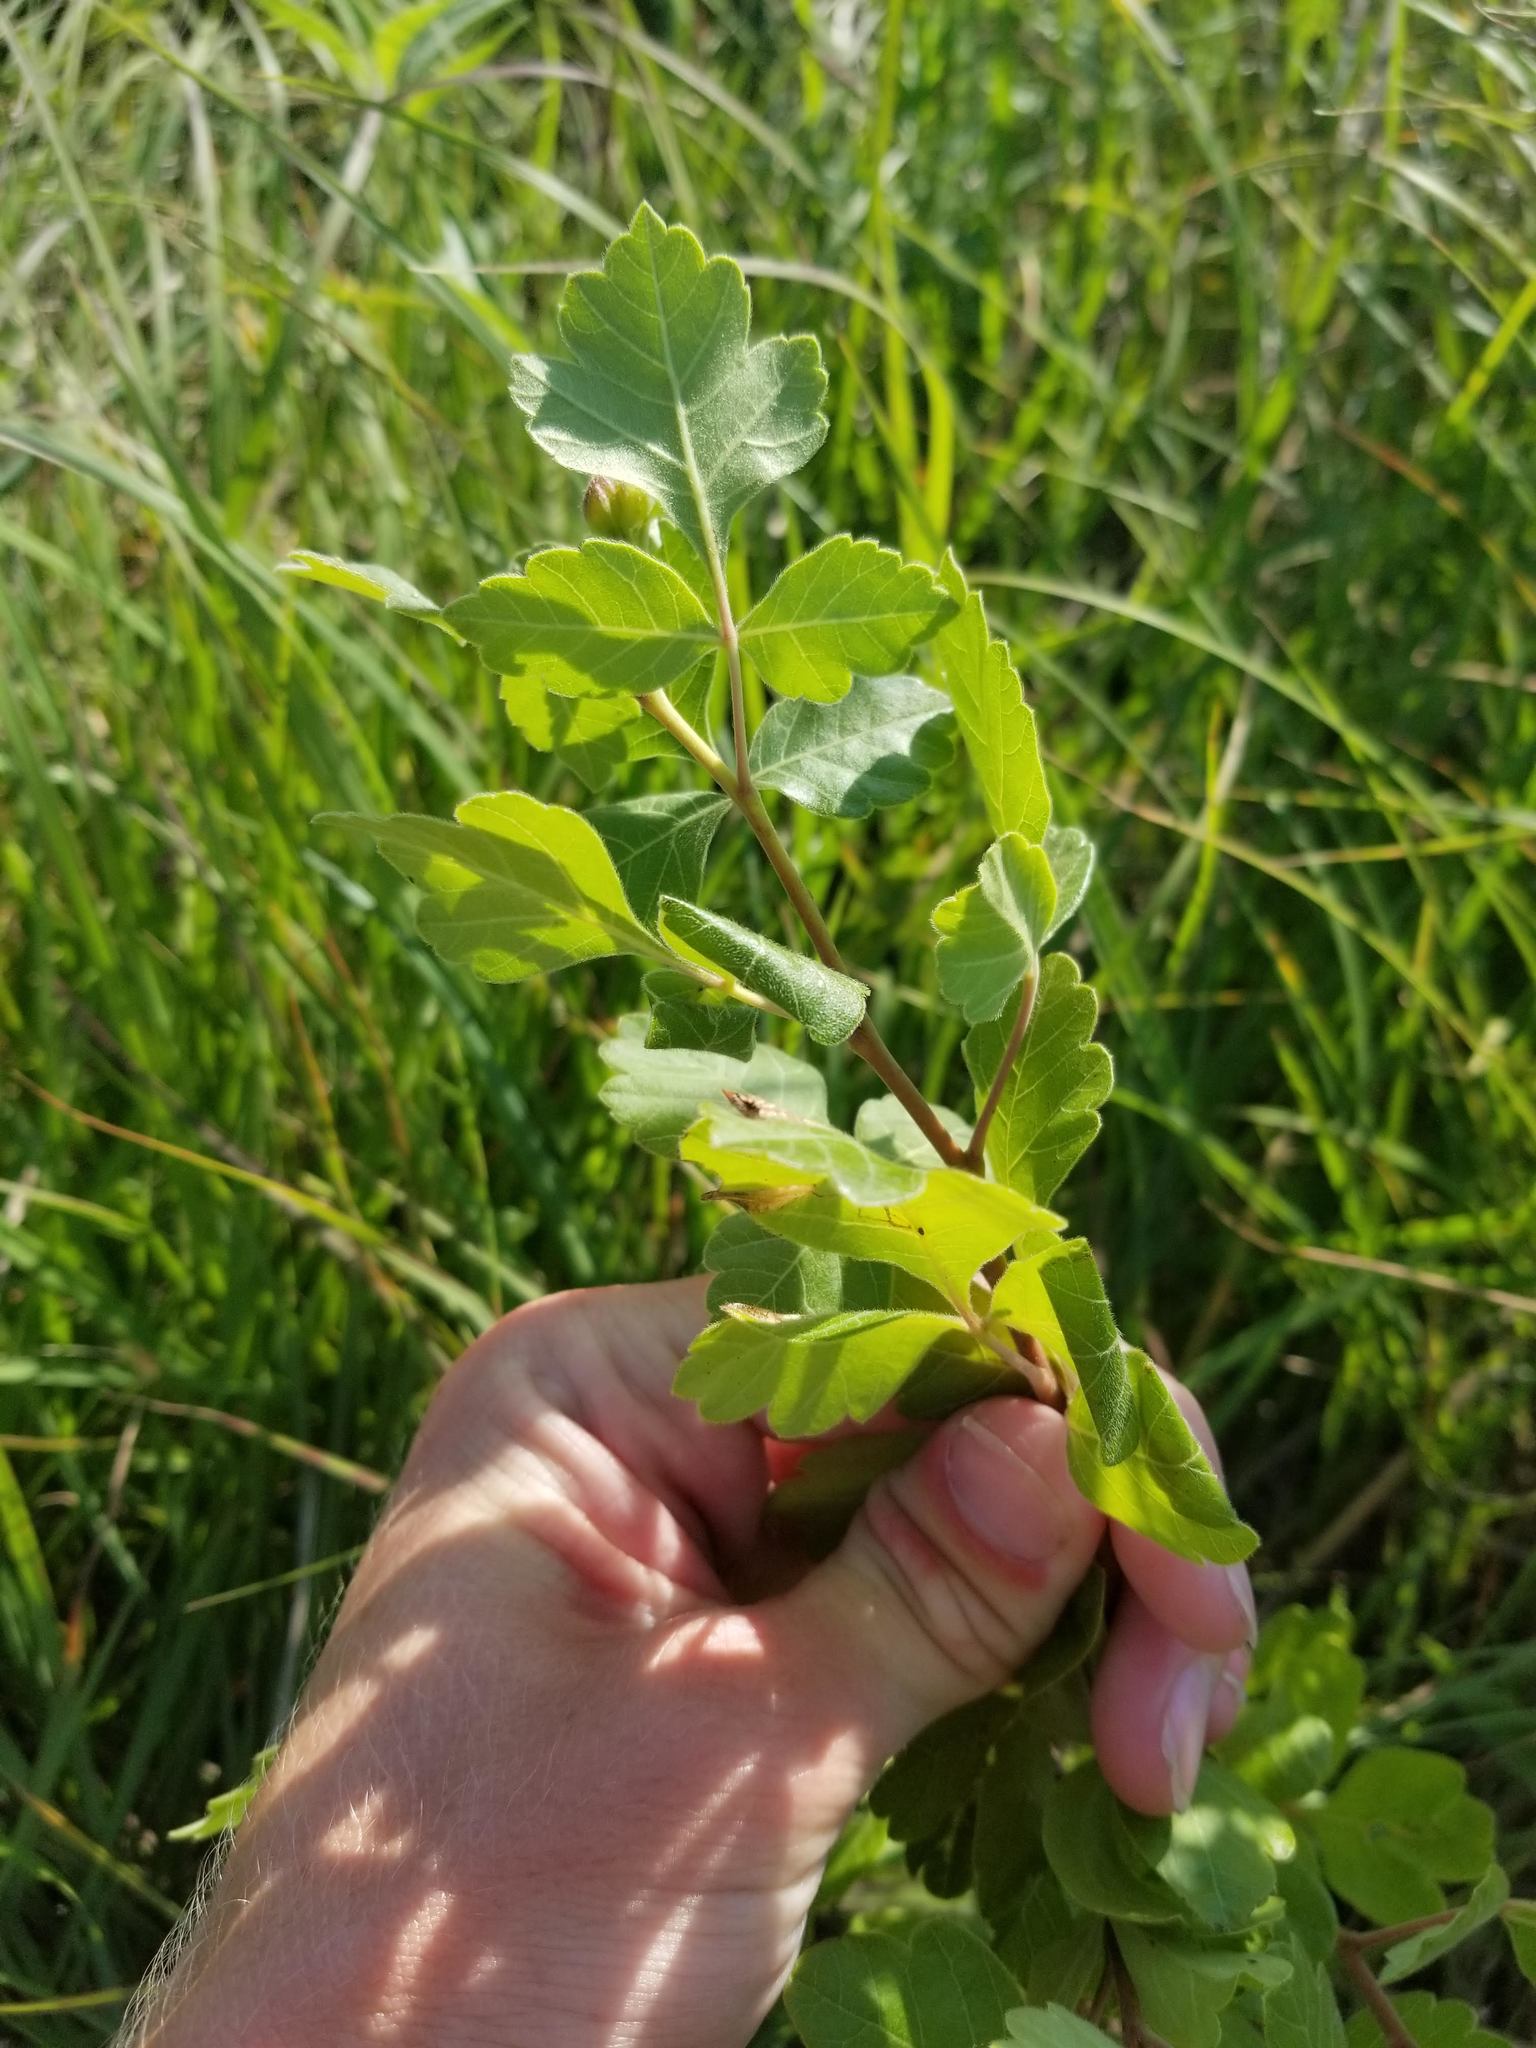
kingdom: Plantae
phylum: Tracheophyta
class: Magnoliopsida
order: Sapindales
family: Anacardiaceae
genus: Rhus
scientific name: Rhus aromatica
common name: Aromatic sumac
